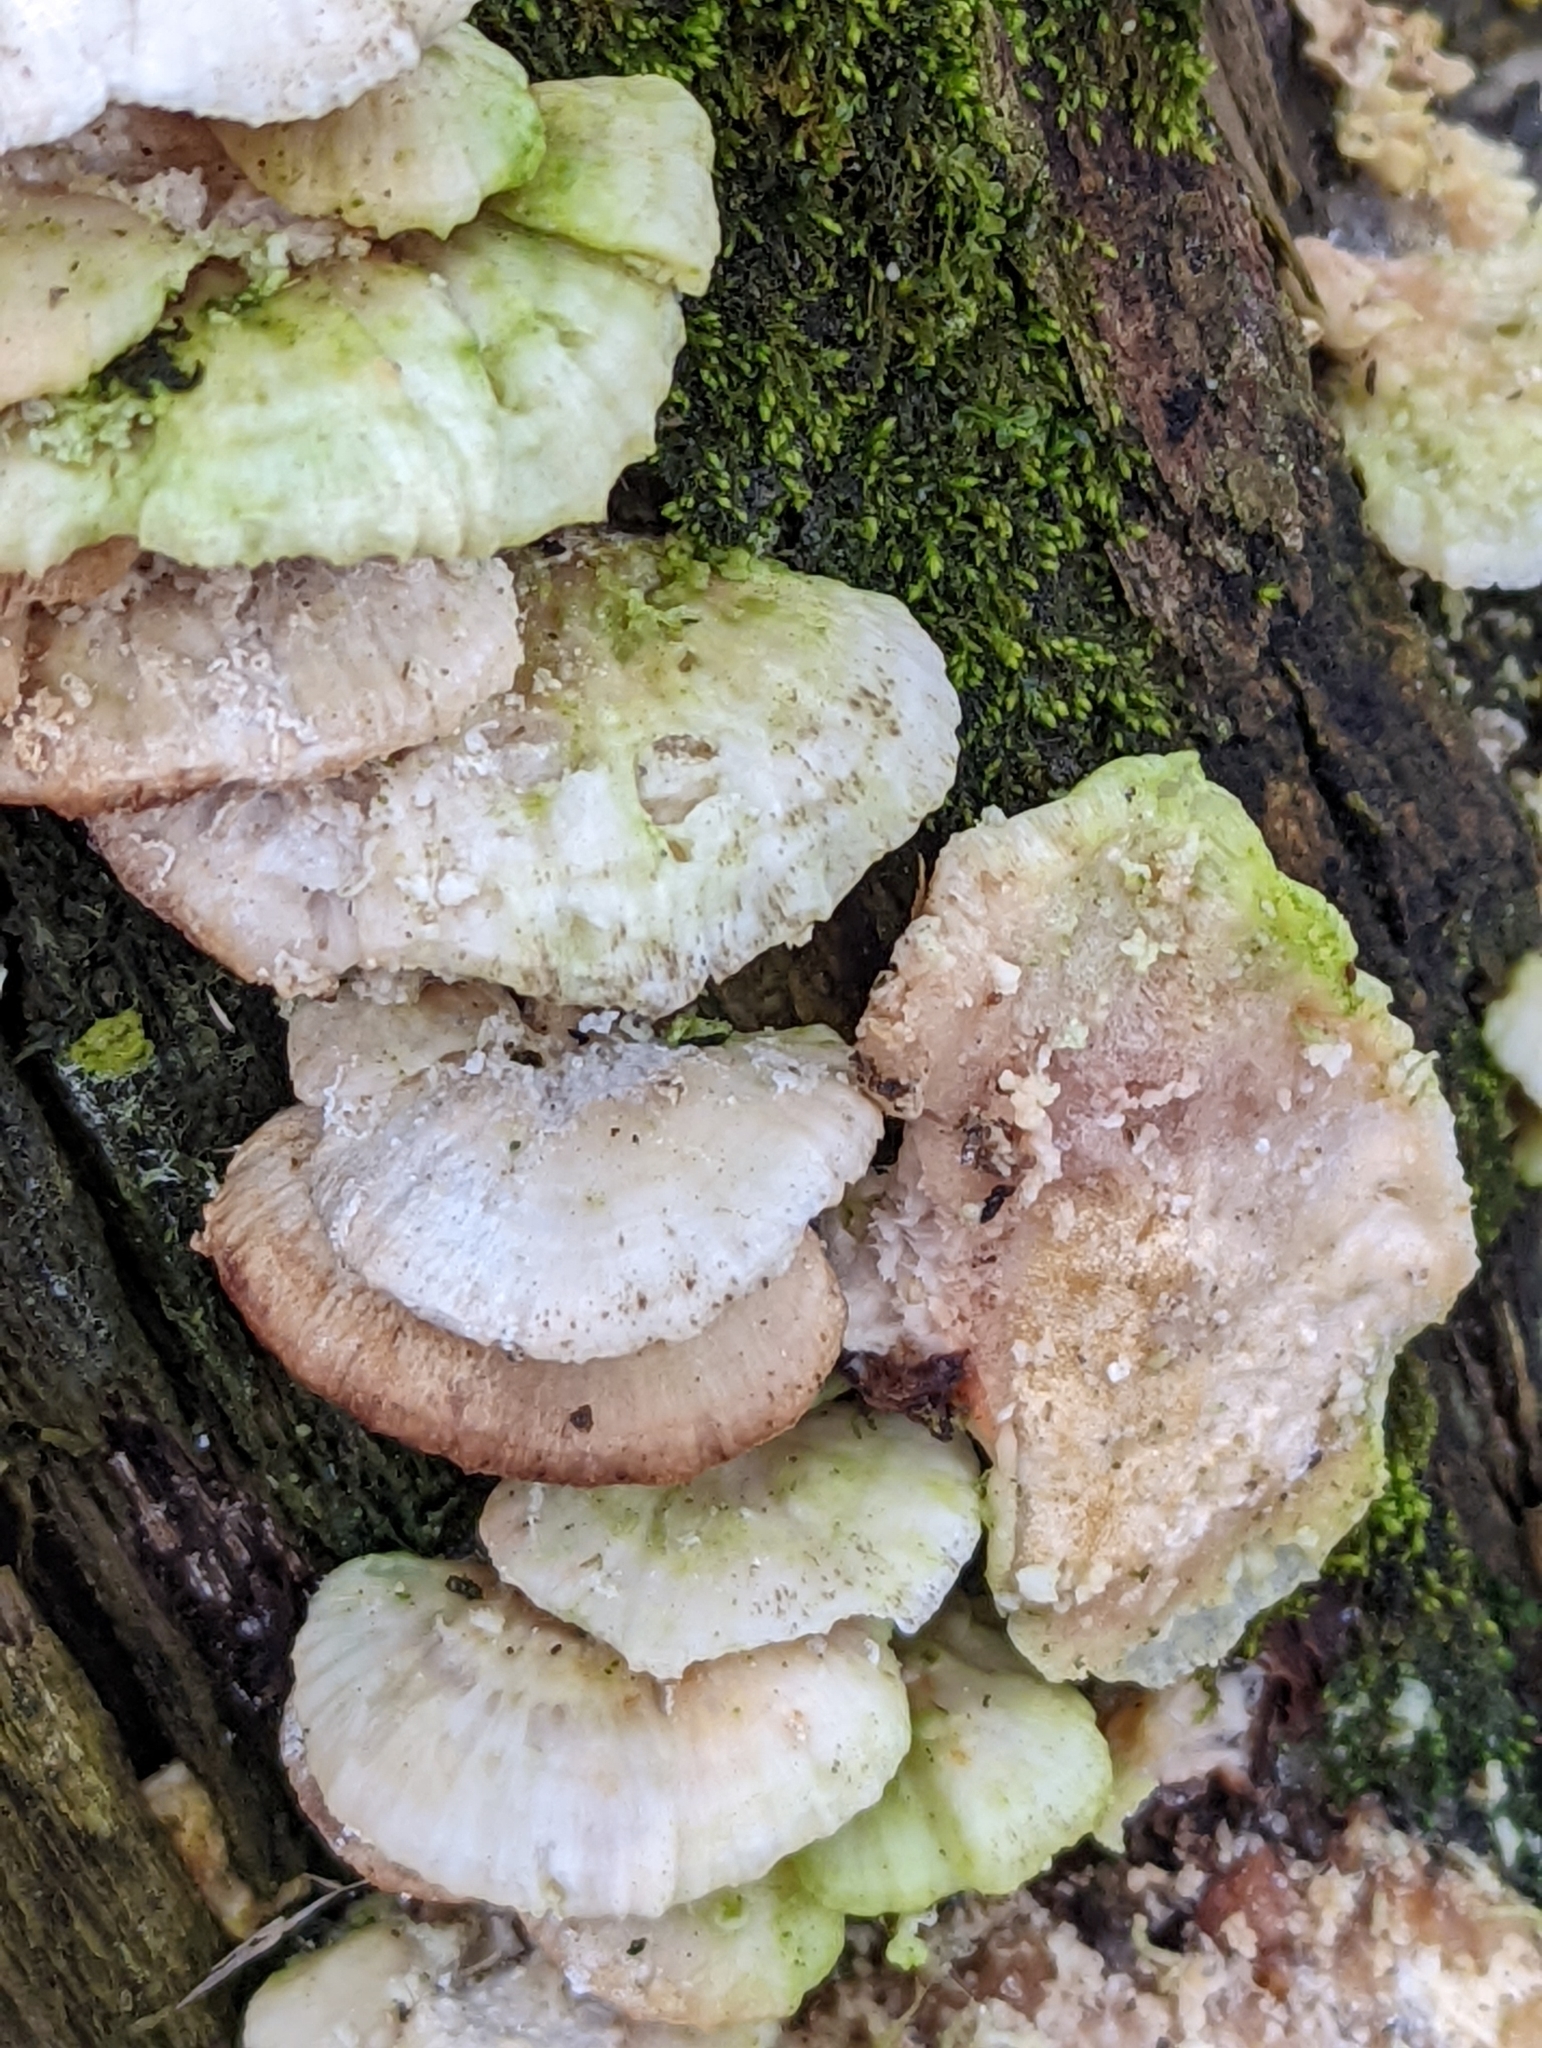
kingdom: Fungi
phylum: Basidiomycota
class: Agaricomycetes
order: Polyporales
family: Polyporaceae
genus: Trametes
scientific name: Trametes pubescens
